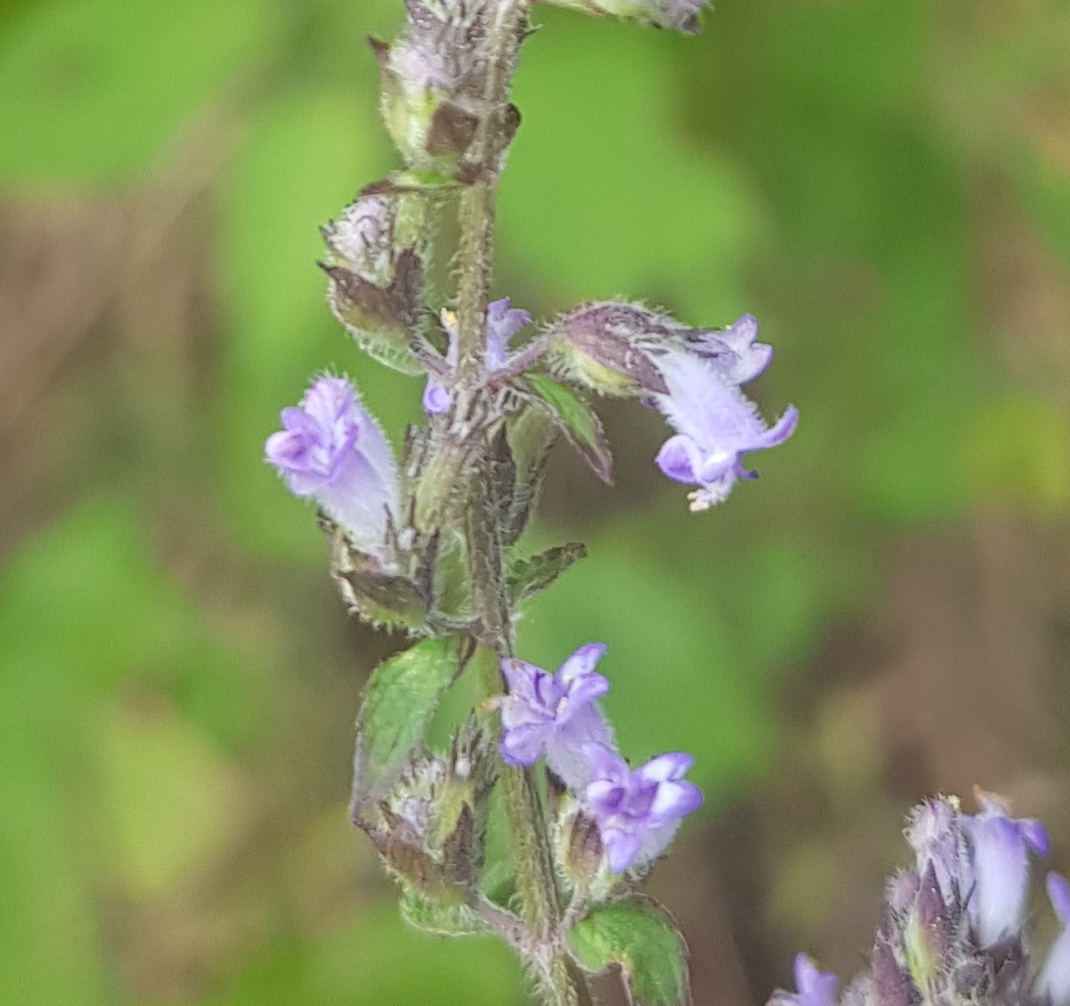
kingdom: Plantae
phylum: Tracheophyta
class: Magnoliopsida
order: Lamiales
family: Lamiaceae
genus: Cantinoa
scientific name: Cantinoa mutabilis
